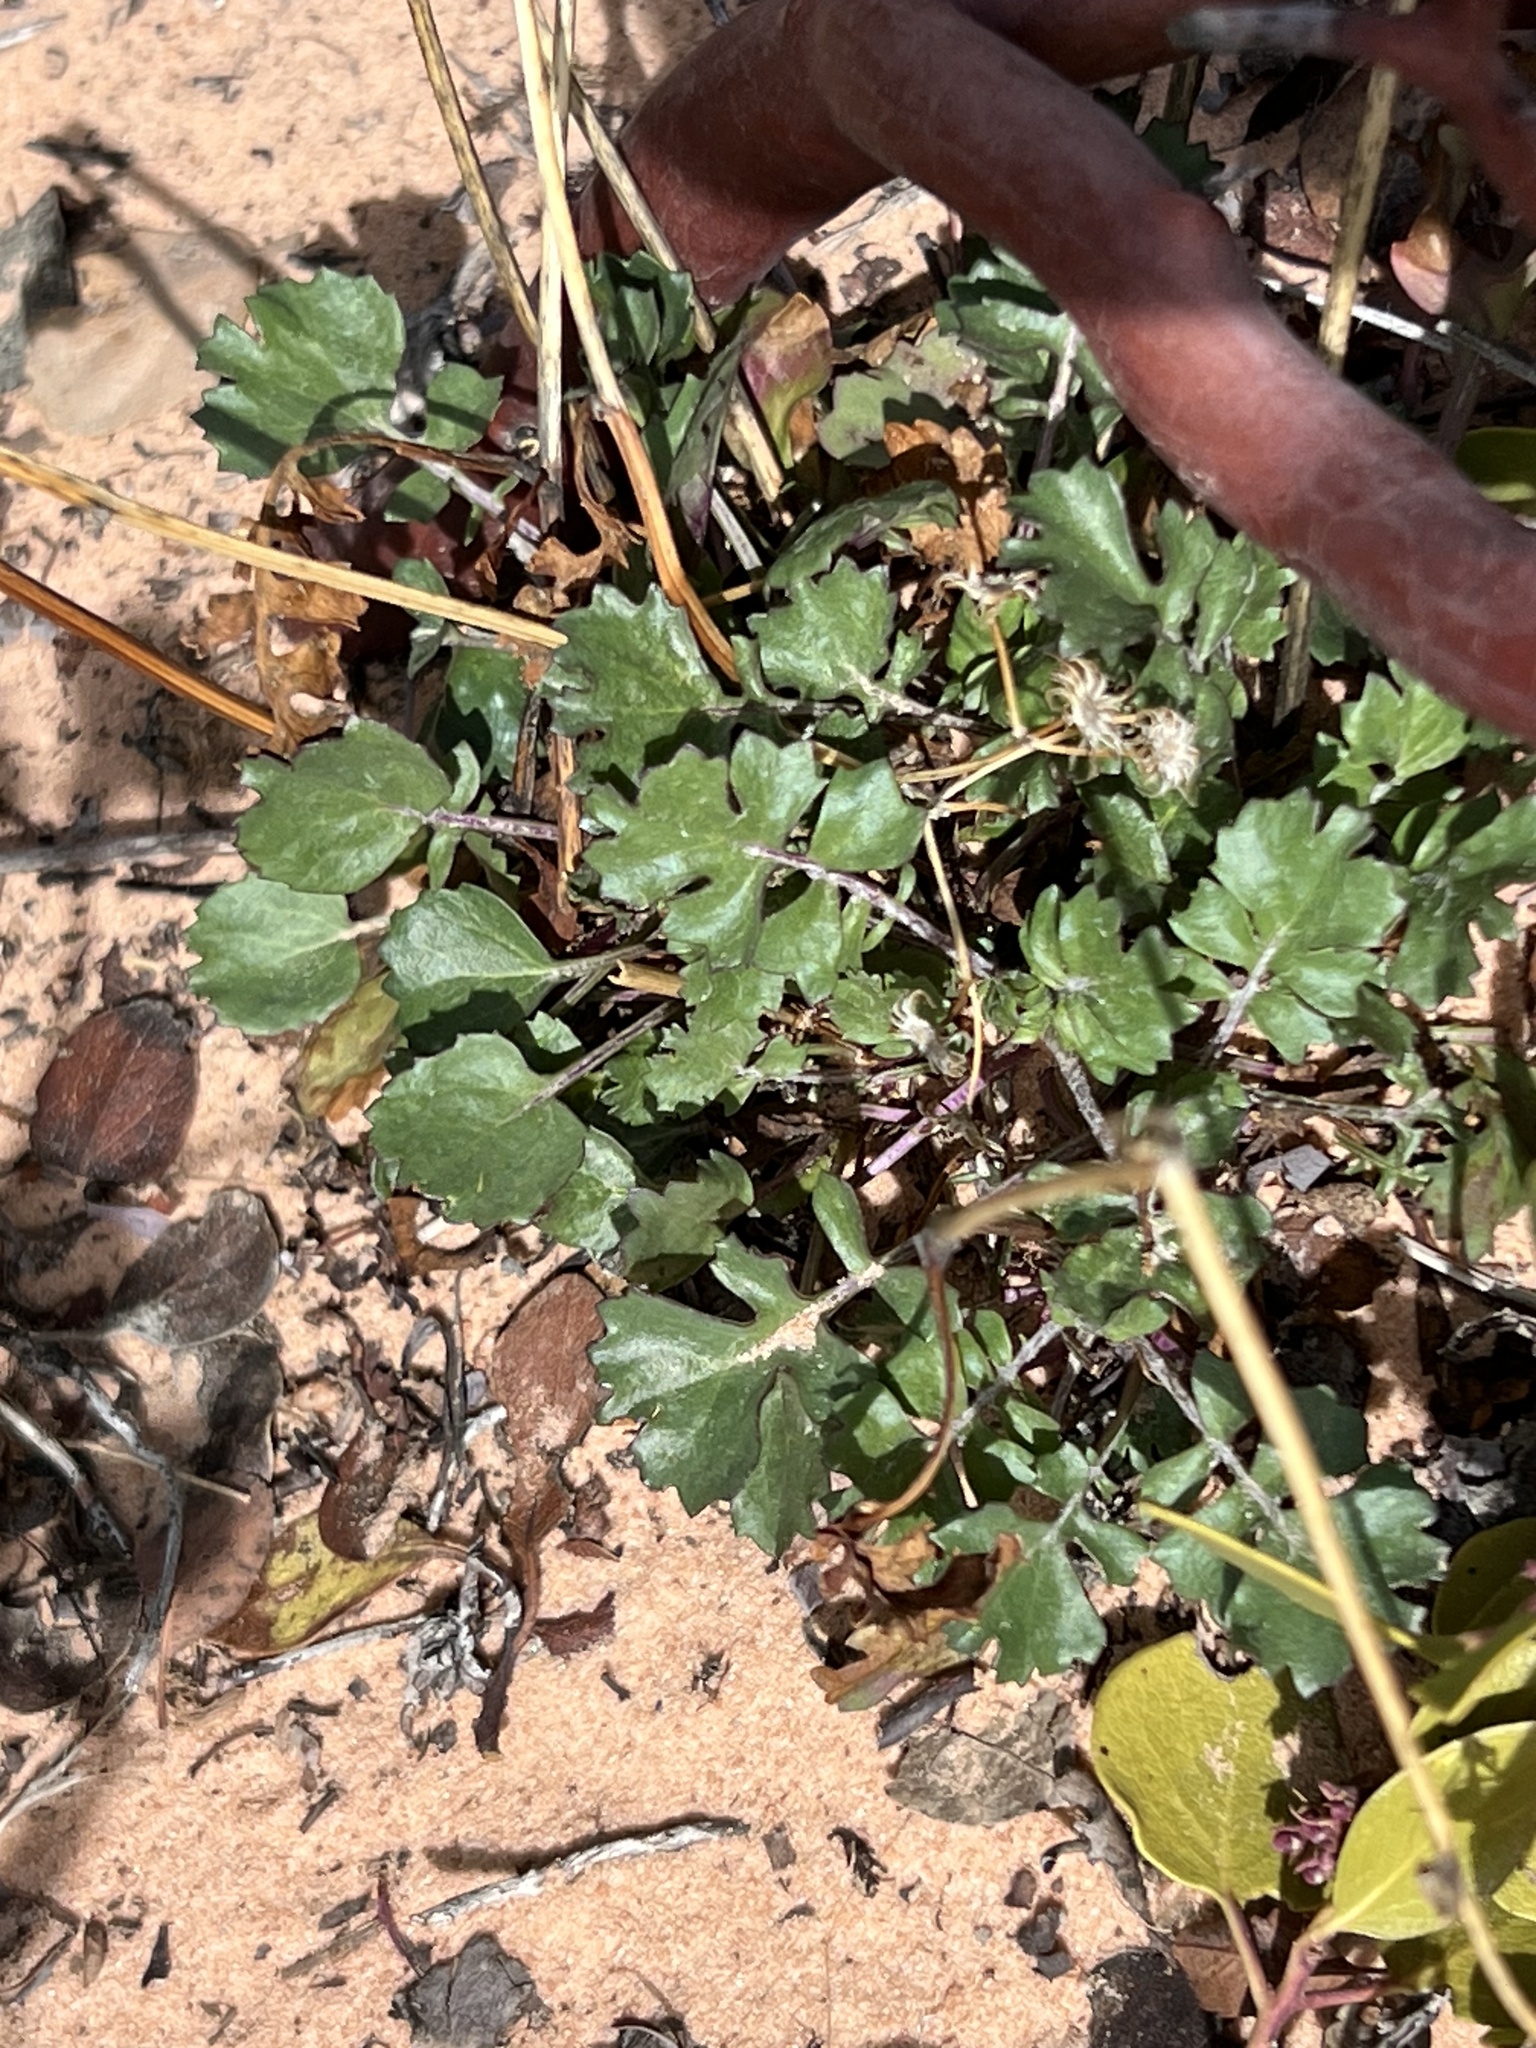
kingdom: Plantae
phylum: Tracheophyta
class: Magnoliopsida
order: Asterales
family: Asteraceae
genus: Packera
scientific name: Packera multilobata
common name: Lobe-leaf groundsel
